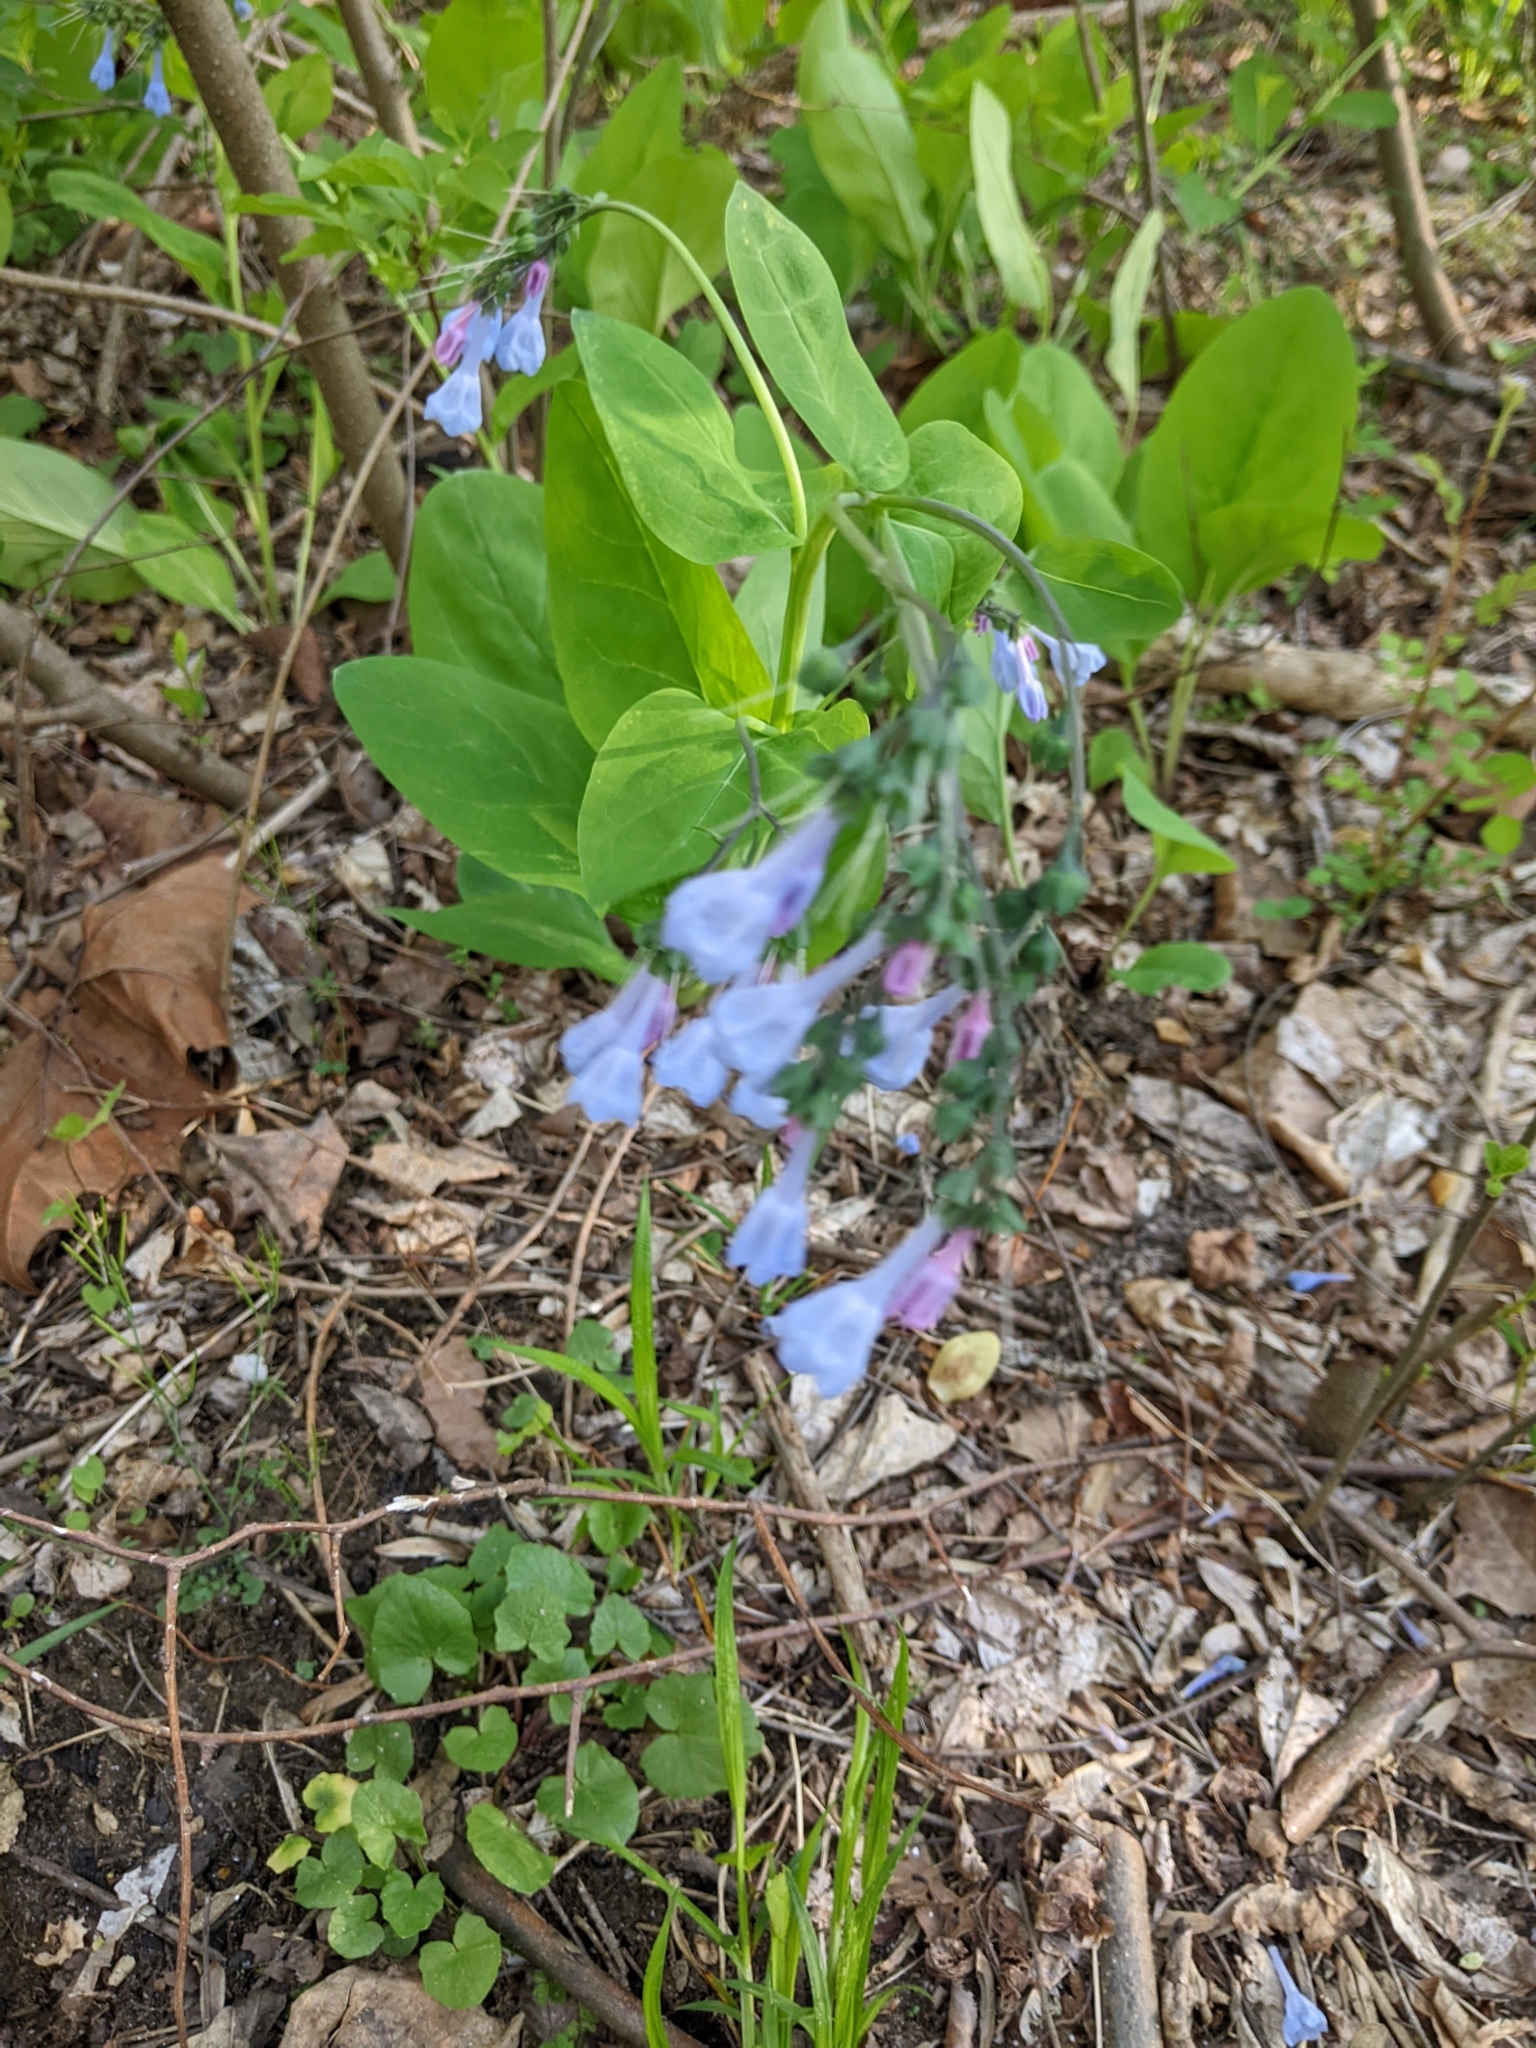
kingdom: Plantae
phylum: Tracheophyta
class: Magnoliopsida
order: Boraginales
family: Boraginaceae
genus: Mertensia
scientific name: Mertensia virginica
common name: Virginia bluebells
